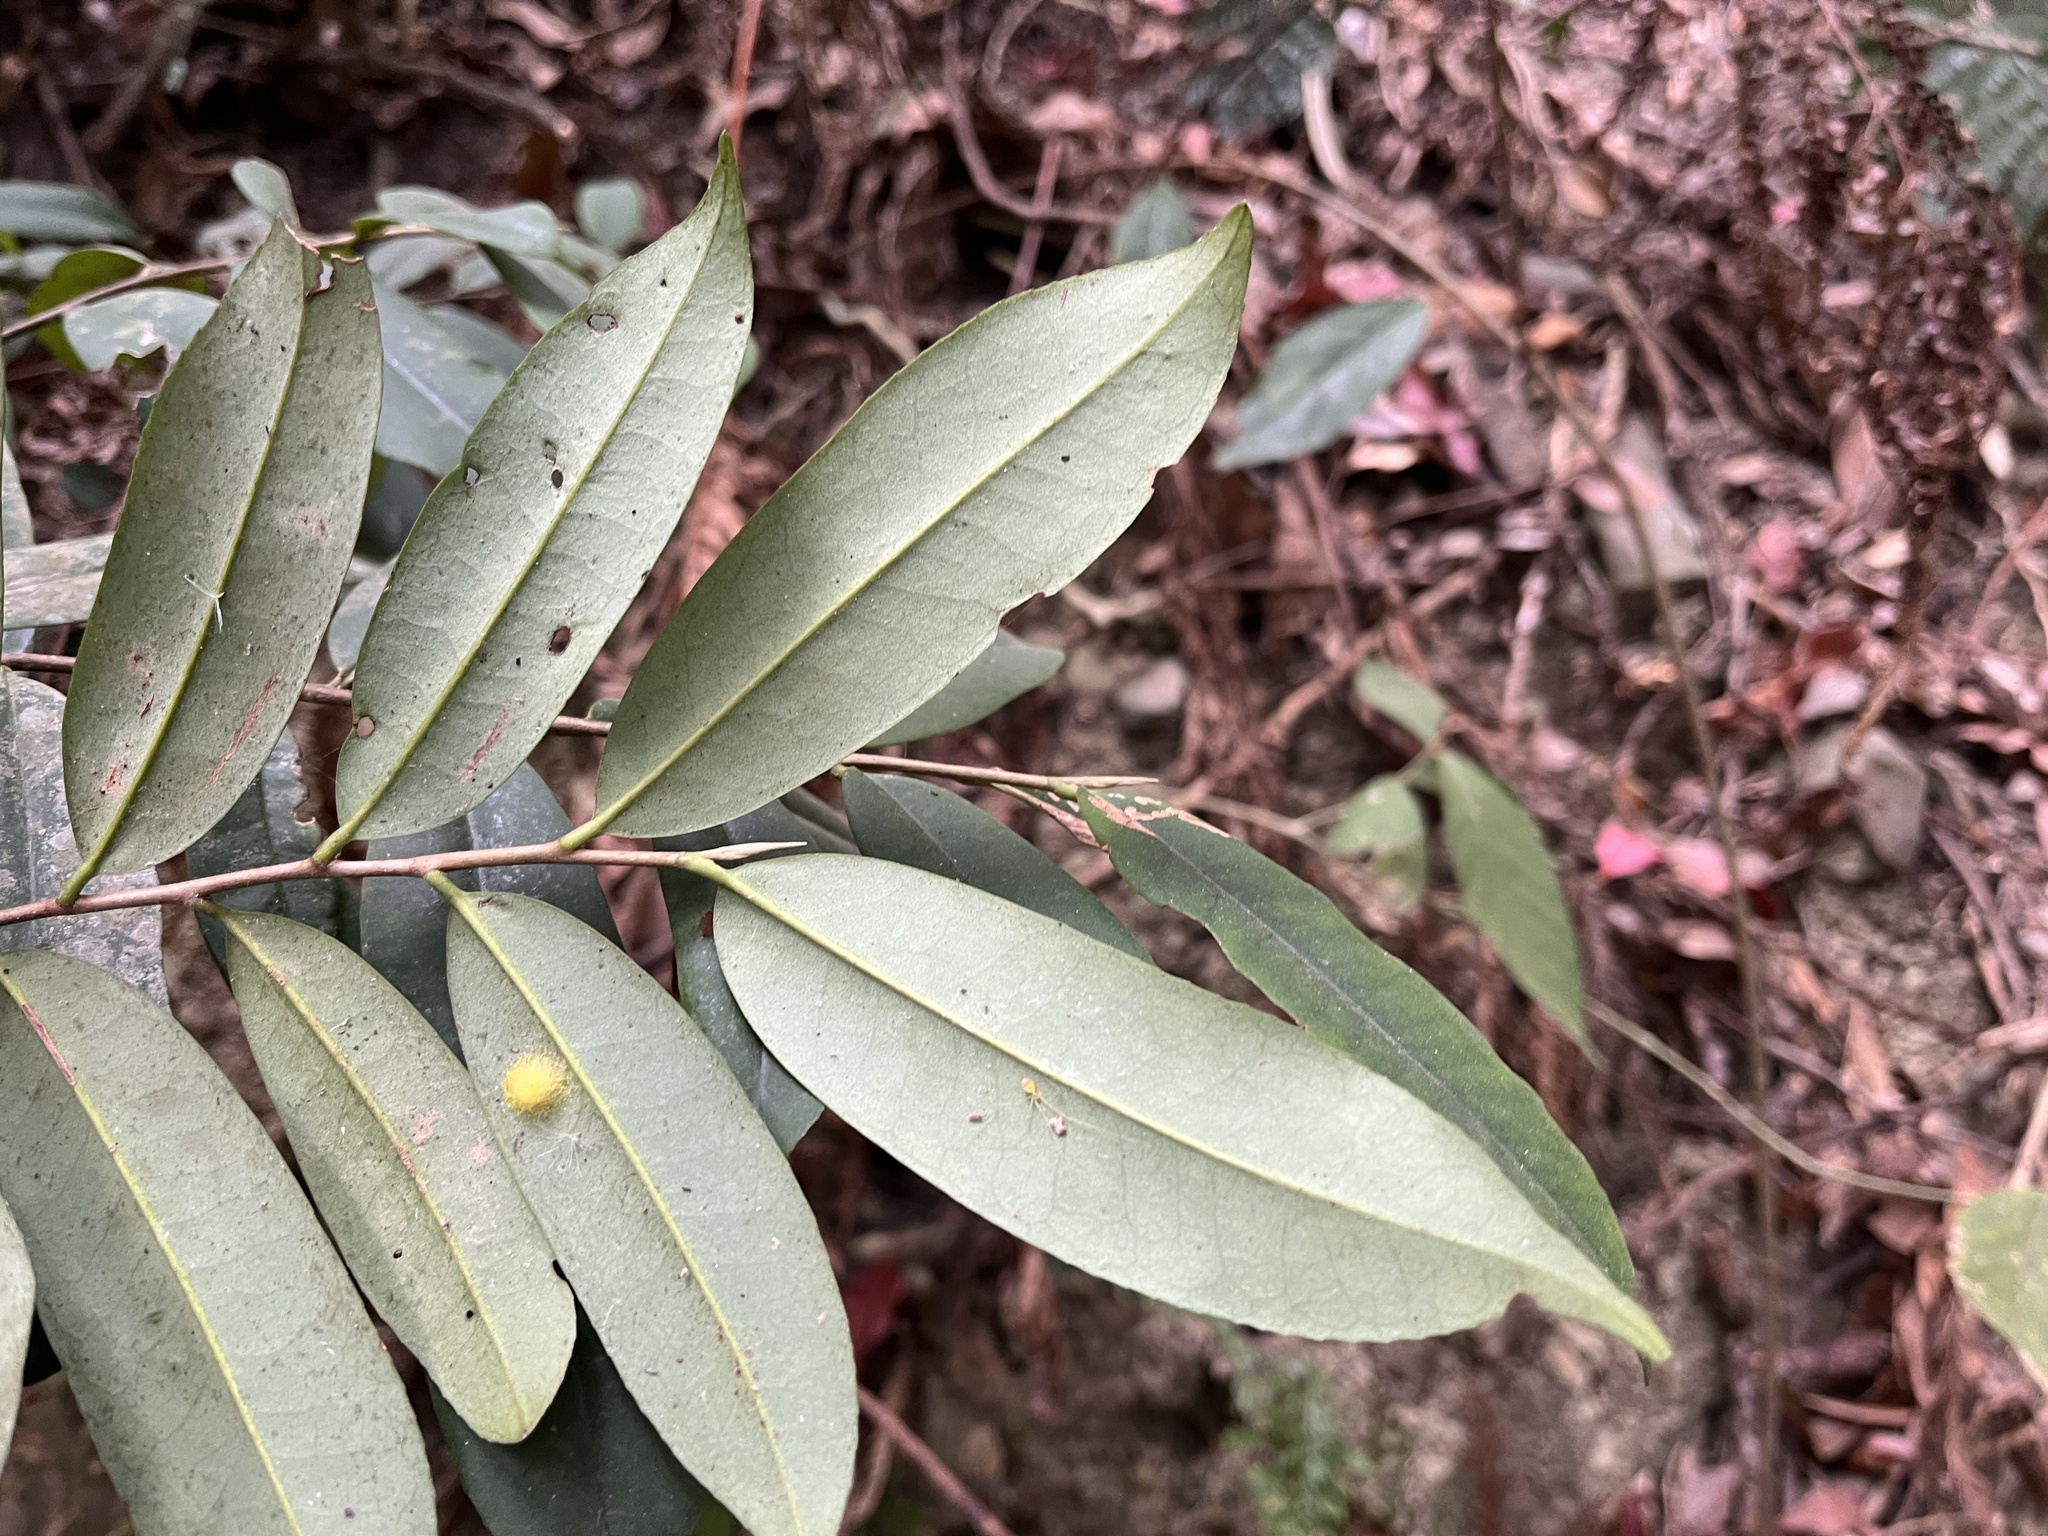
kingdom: Plantae
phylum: Tracheophyta
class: Magnoliopsida
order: Ericales
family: Pentaphylacaceae
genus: Adinandra
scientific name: Adinandra formosana
